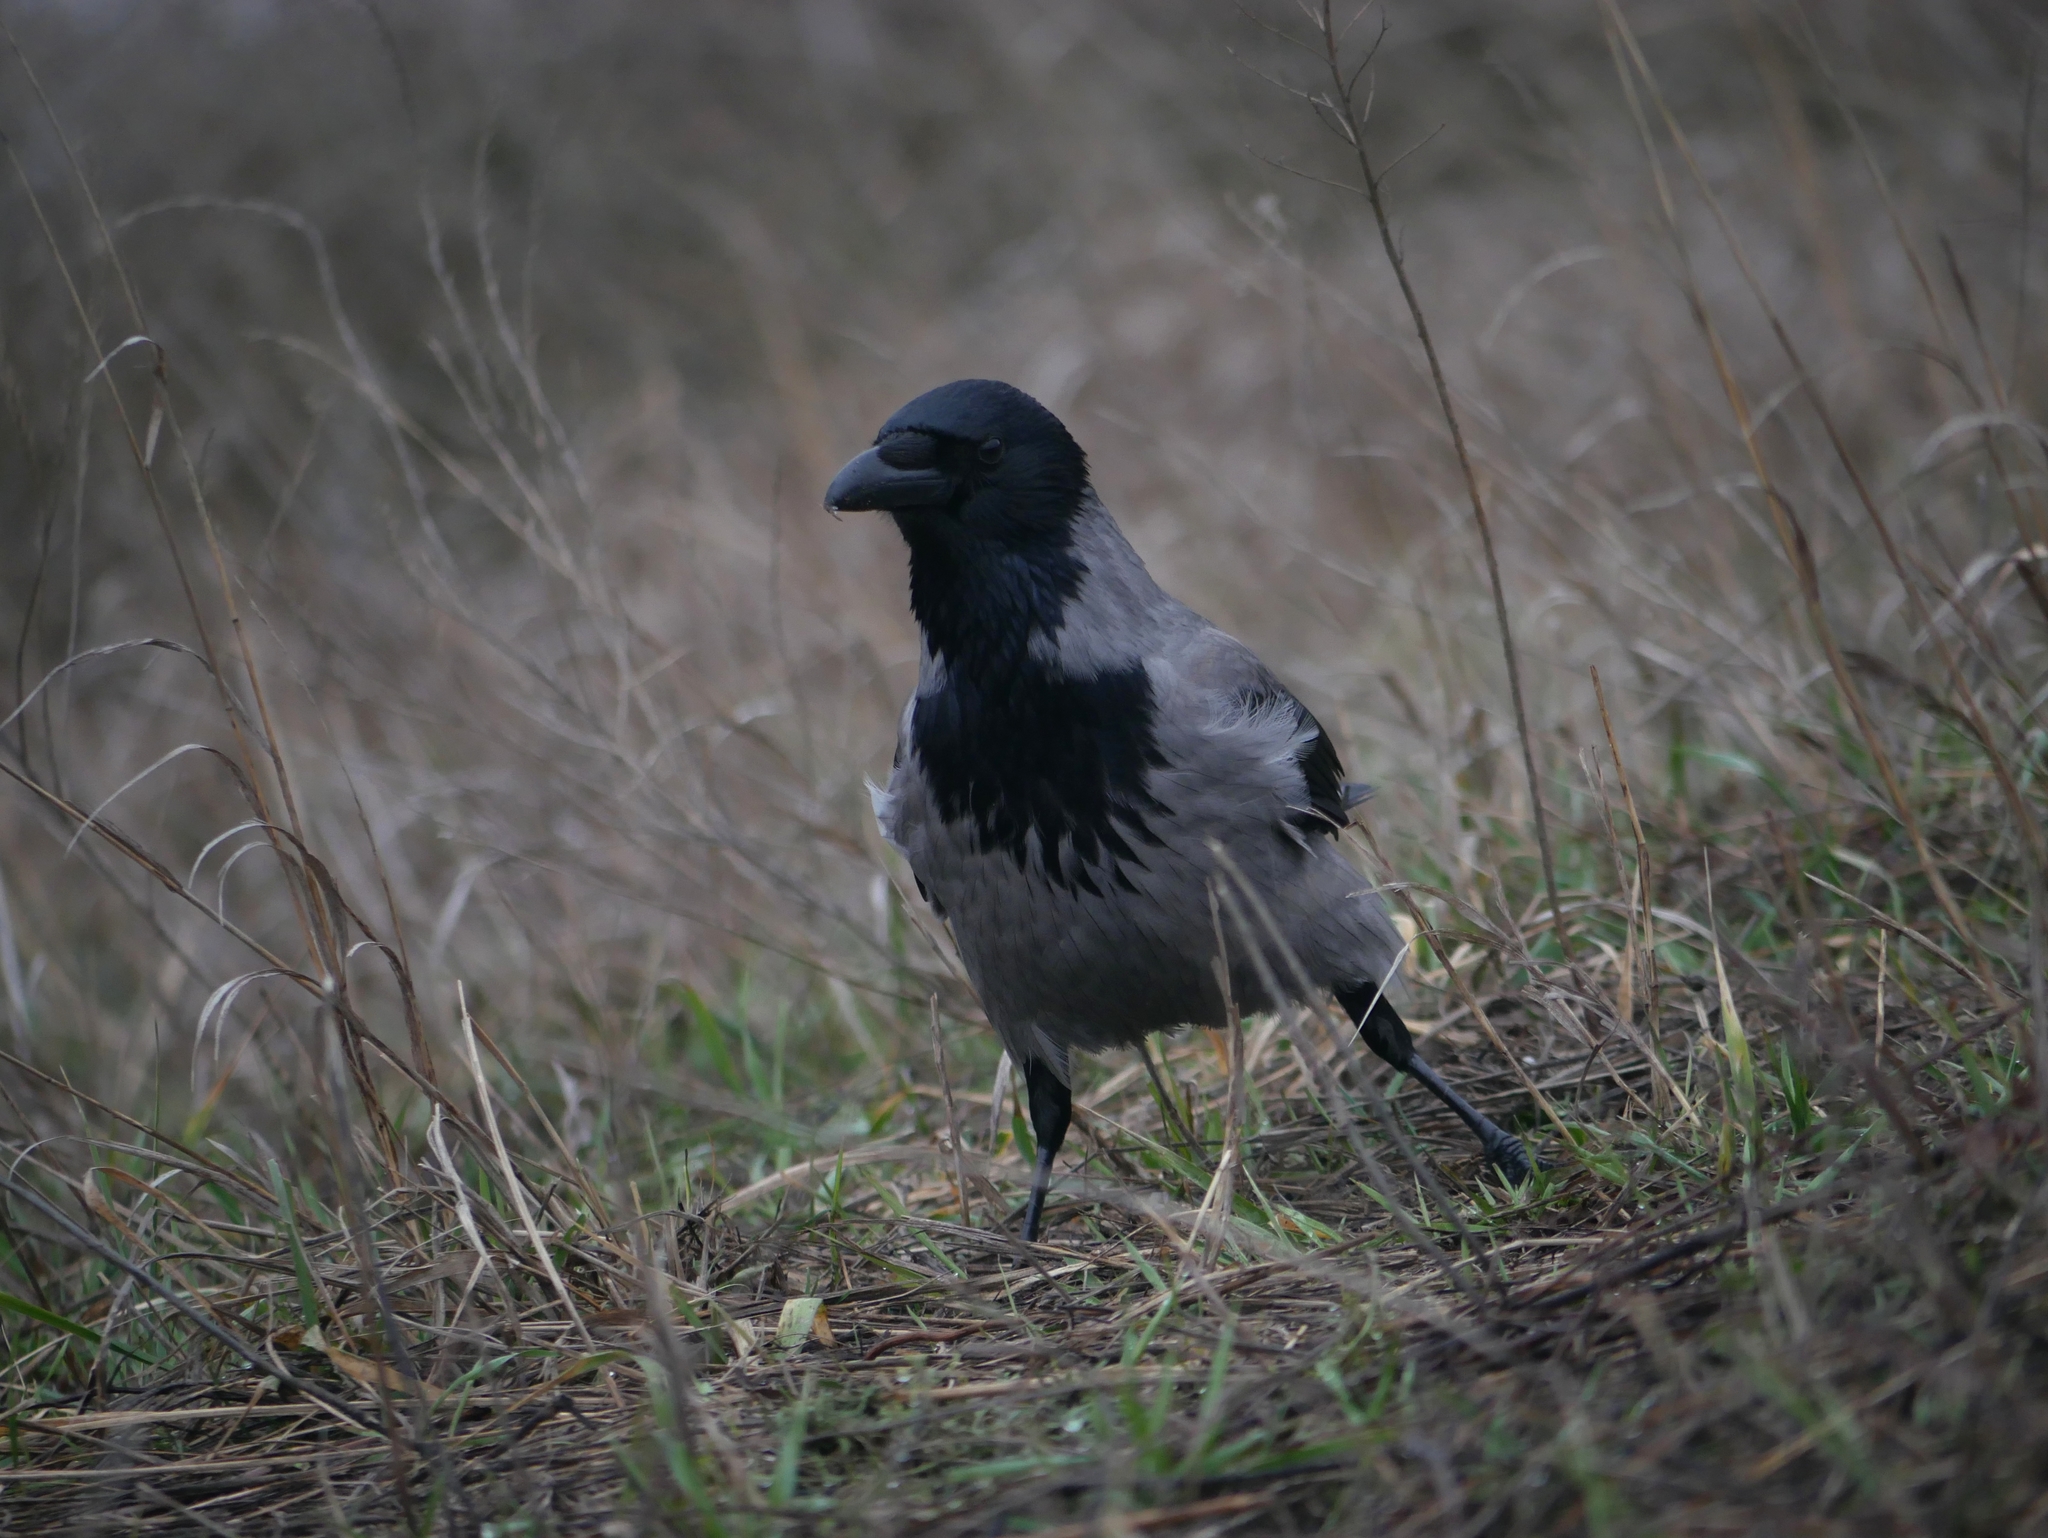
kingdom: Animalia
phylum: Chordata
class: Aves
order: Passeriformes
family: Corvidae
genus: Corvus
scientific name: Corvus cornix
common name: Hooded crow
